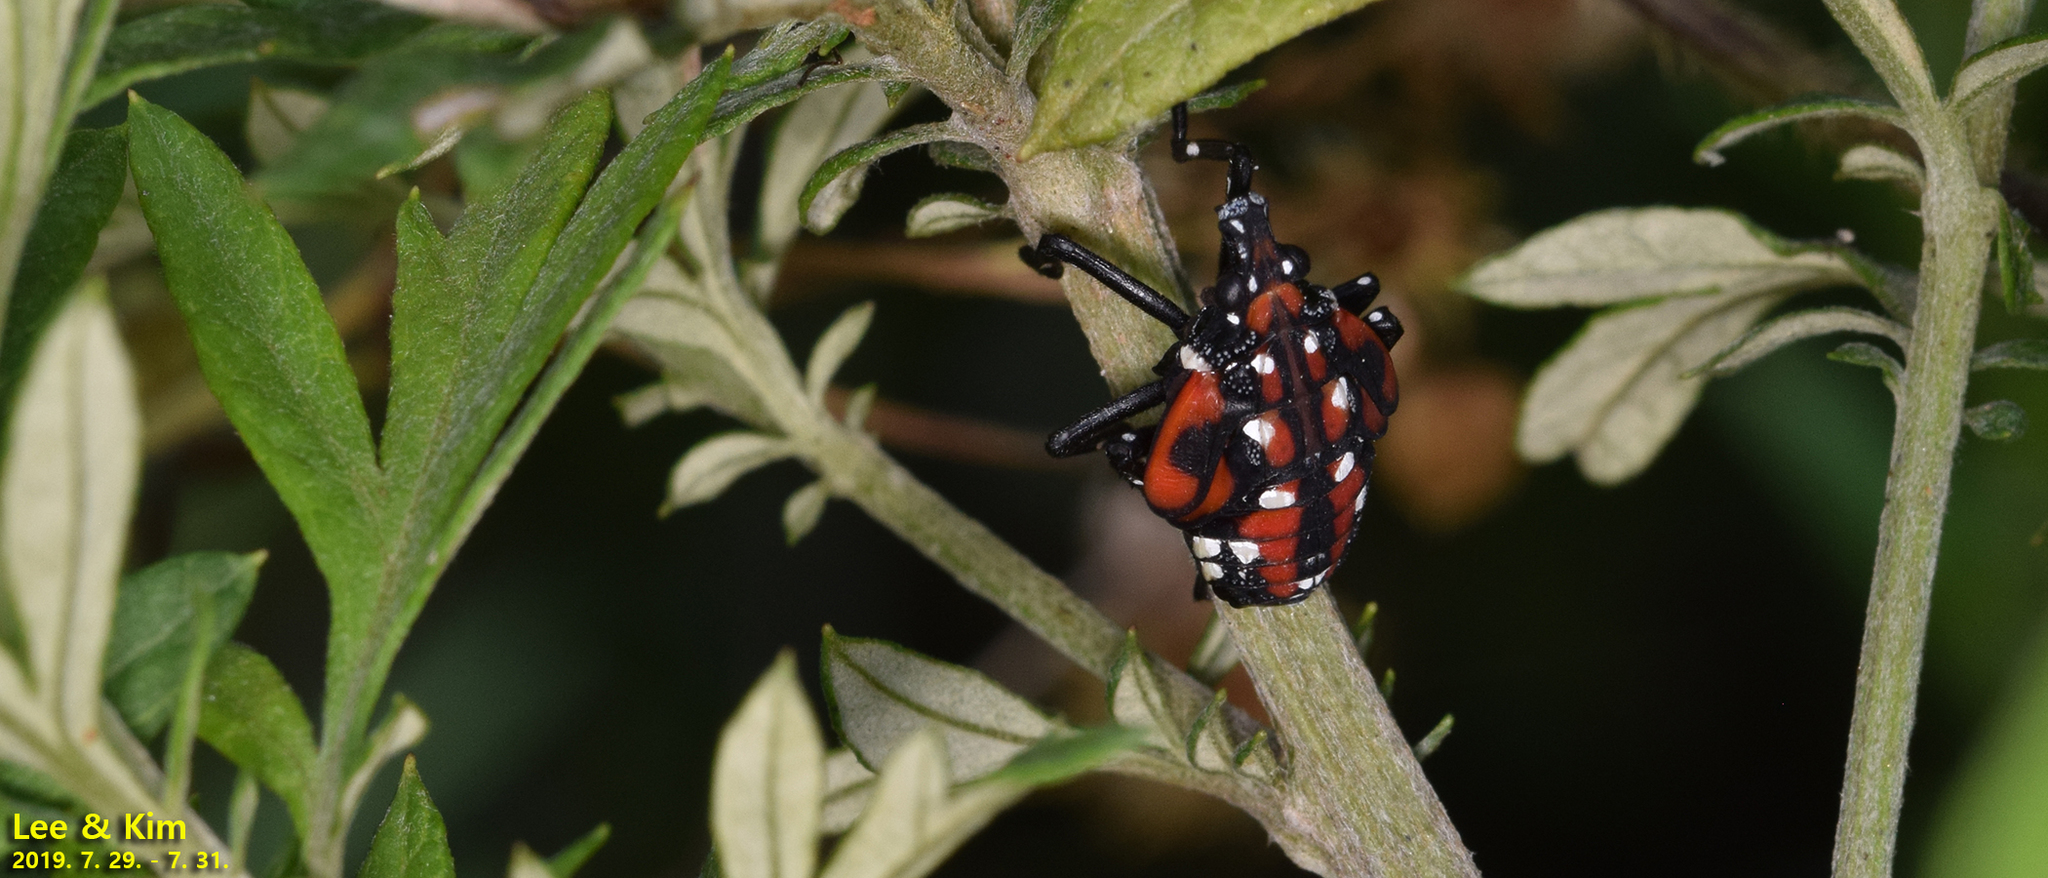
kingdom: Animalia
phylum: Arthropoda
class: Insecta
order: Hemiptera
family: Fulgoridae
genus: Lycorma
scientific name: Lycorma delicatula
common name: Spotted lanternfly
